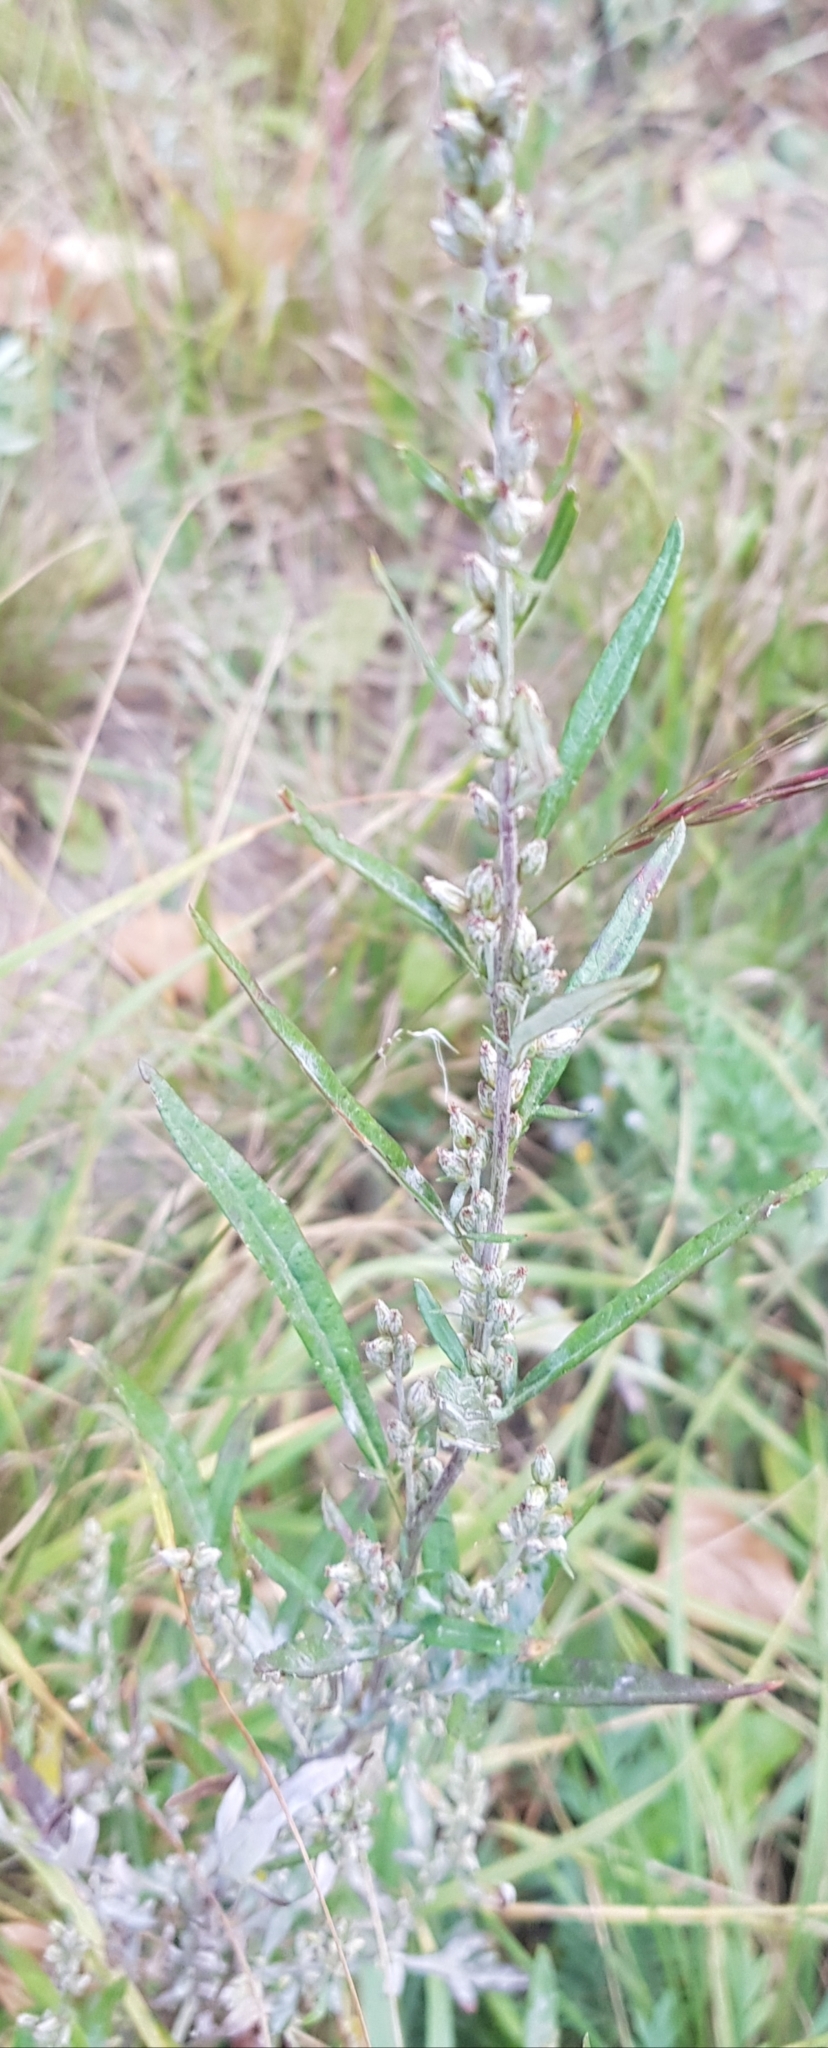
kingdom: Plantae
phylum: Tracheophyta
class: Magnoliopsida
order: Asterales
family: Asteraceae
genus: Artemisia
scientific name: Artemisia vulgaris
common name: Mugwort
